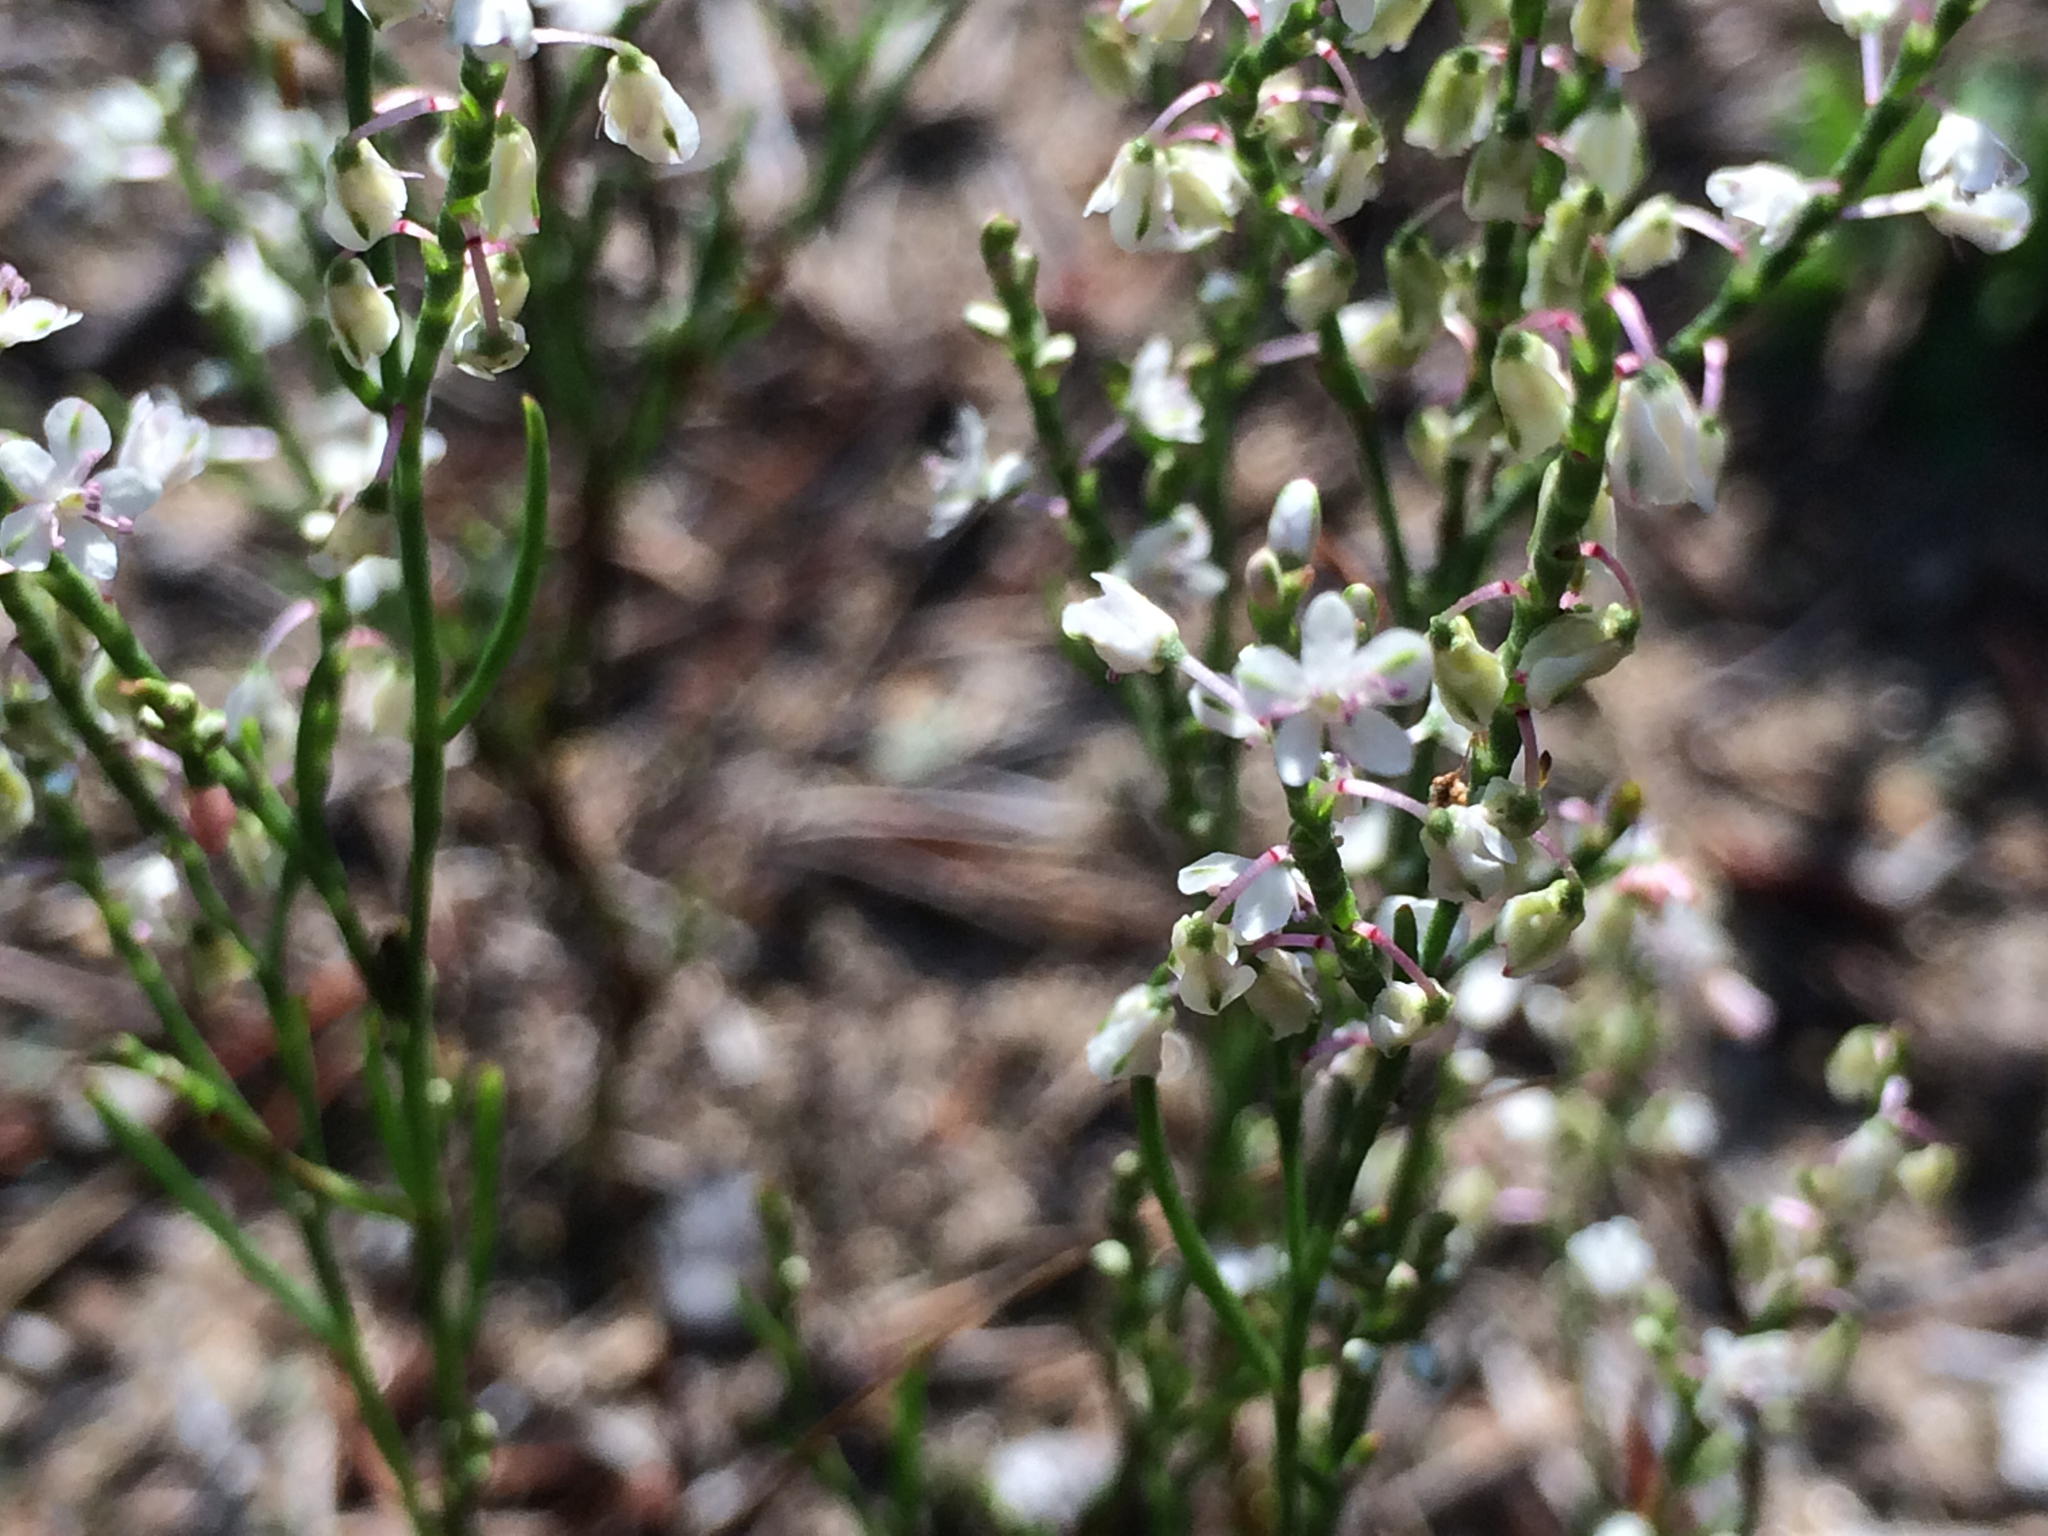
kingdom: Plantae
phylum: Tracheophyta
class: Magnoliopsida
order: Caryophyllales
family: Polygonaceae
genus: Polygonella
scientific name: Polygonella articulata
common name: Coastal jointweed
